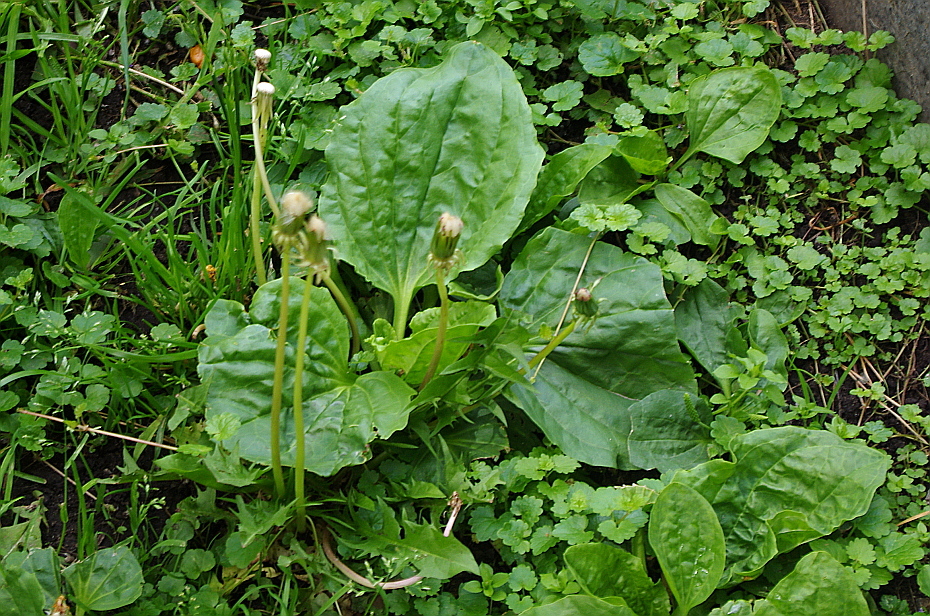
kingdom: Plantae
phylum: Tracheophyta
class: Magnoliopsida
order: Lamiales
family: Plantaginaceae
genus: Plantago
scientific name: Plantago major
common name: Common plantain
